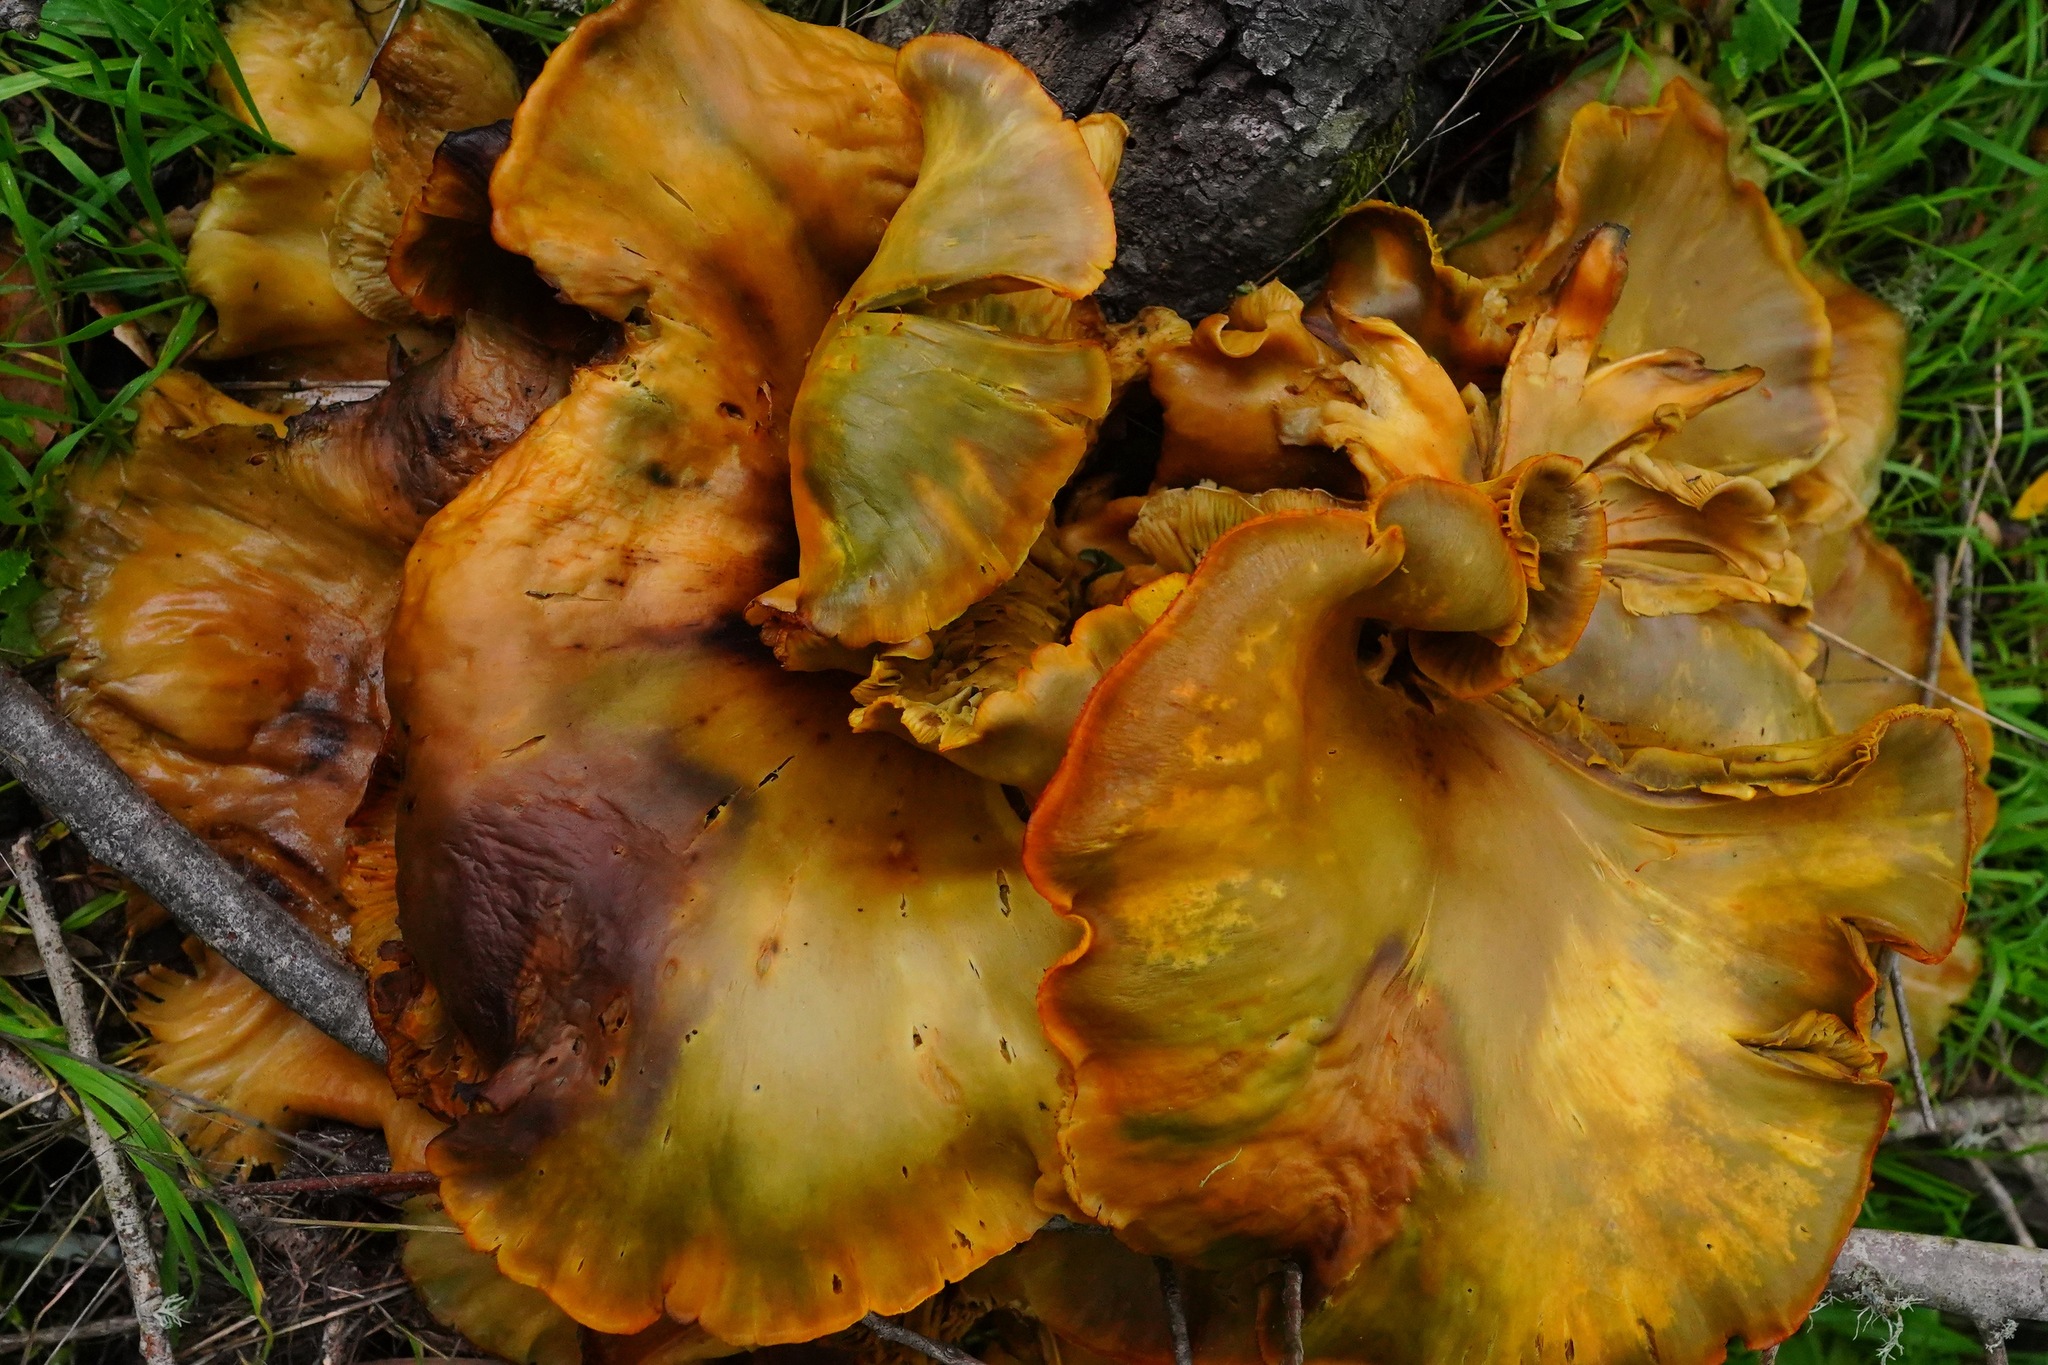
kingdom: Fungi
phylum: Basidiomycota
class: Agaricomycetes
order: Agaricales
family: Omphalotaceae
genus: Omphalotus
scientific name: Omphalotus olivascens
